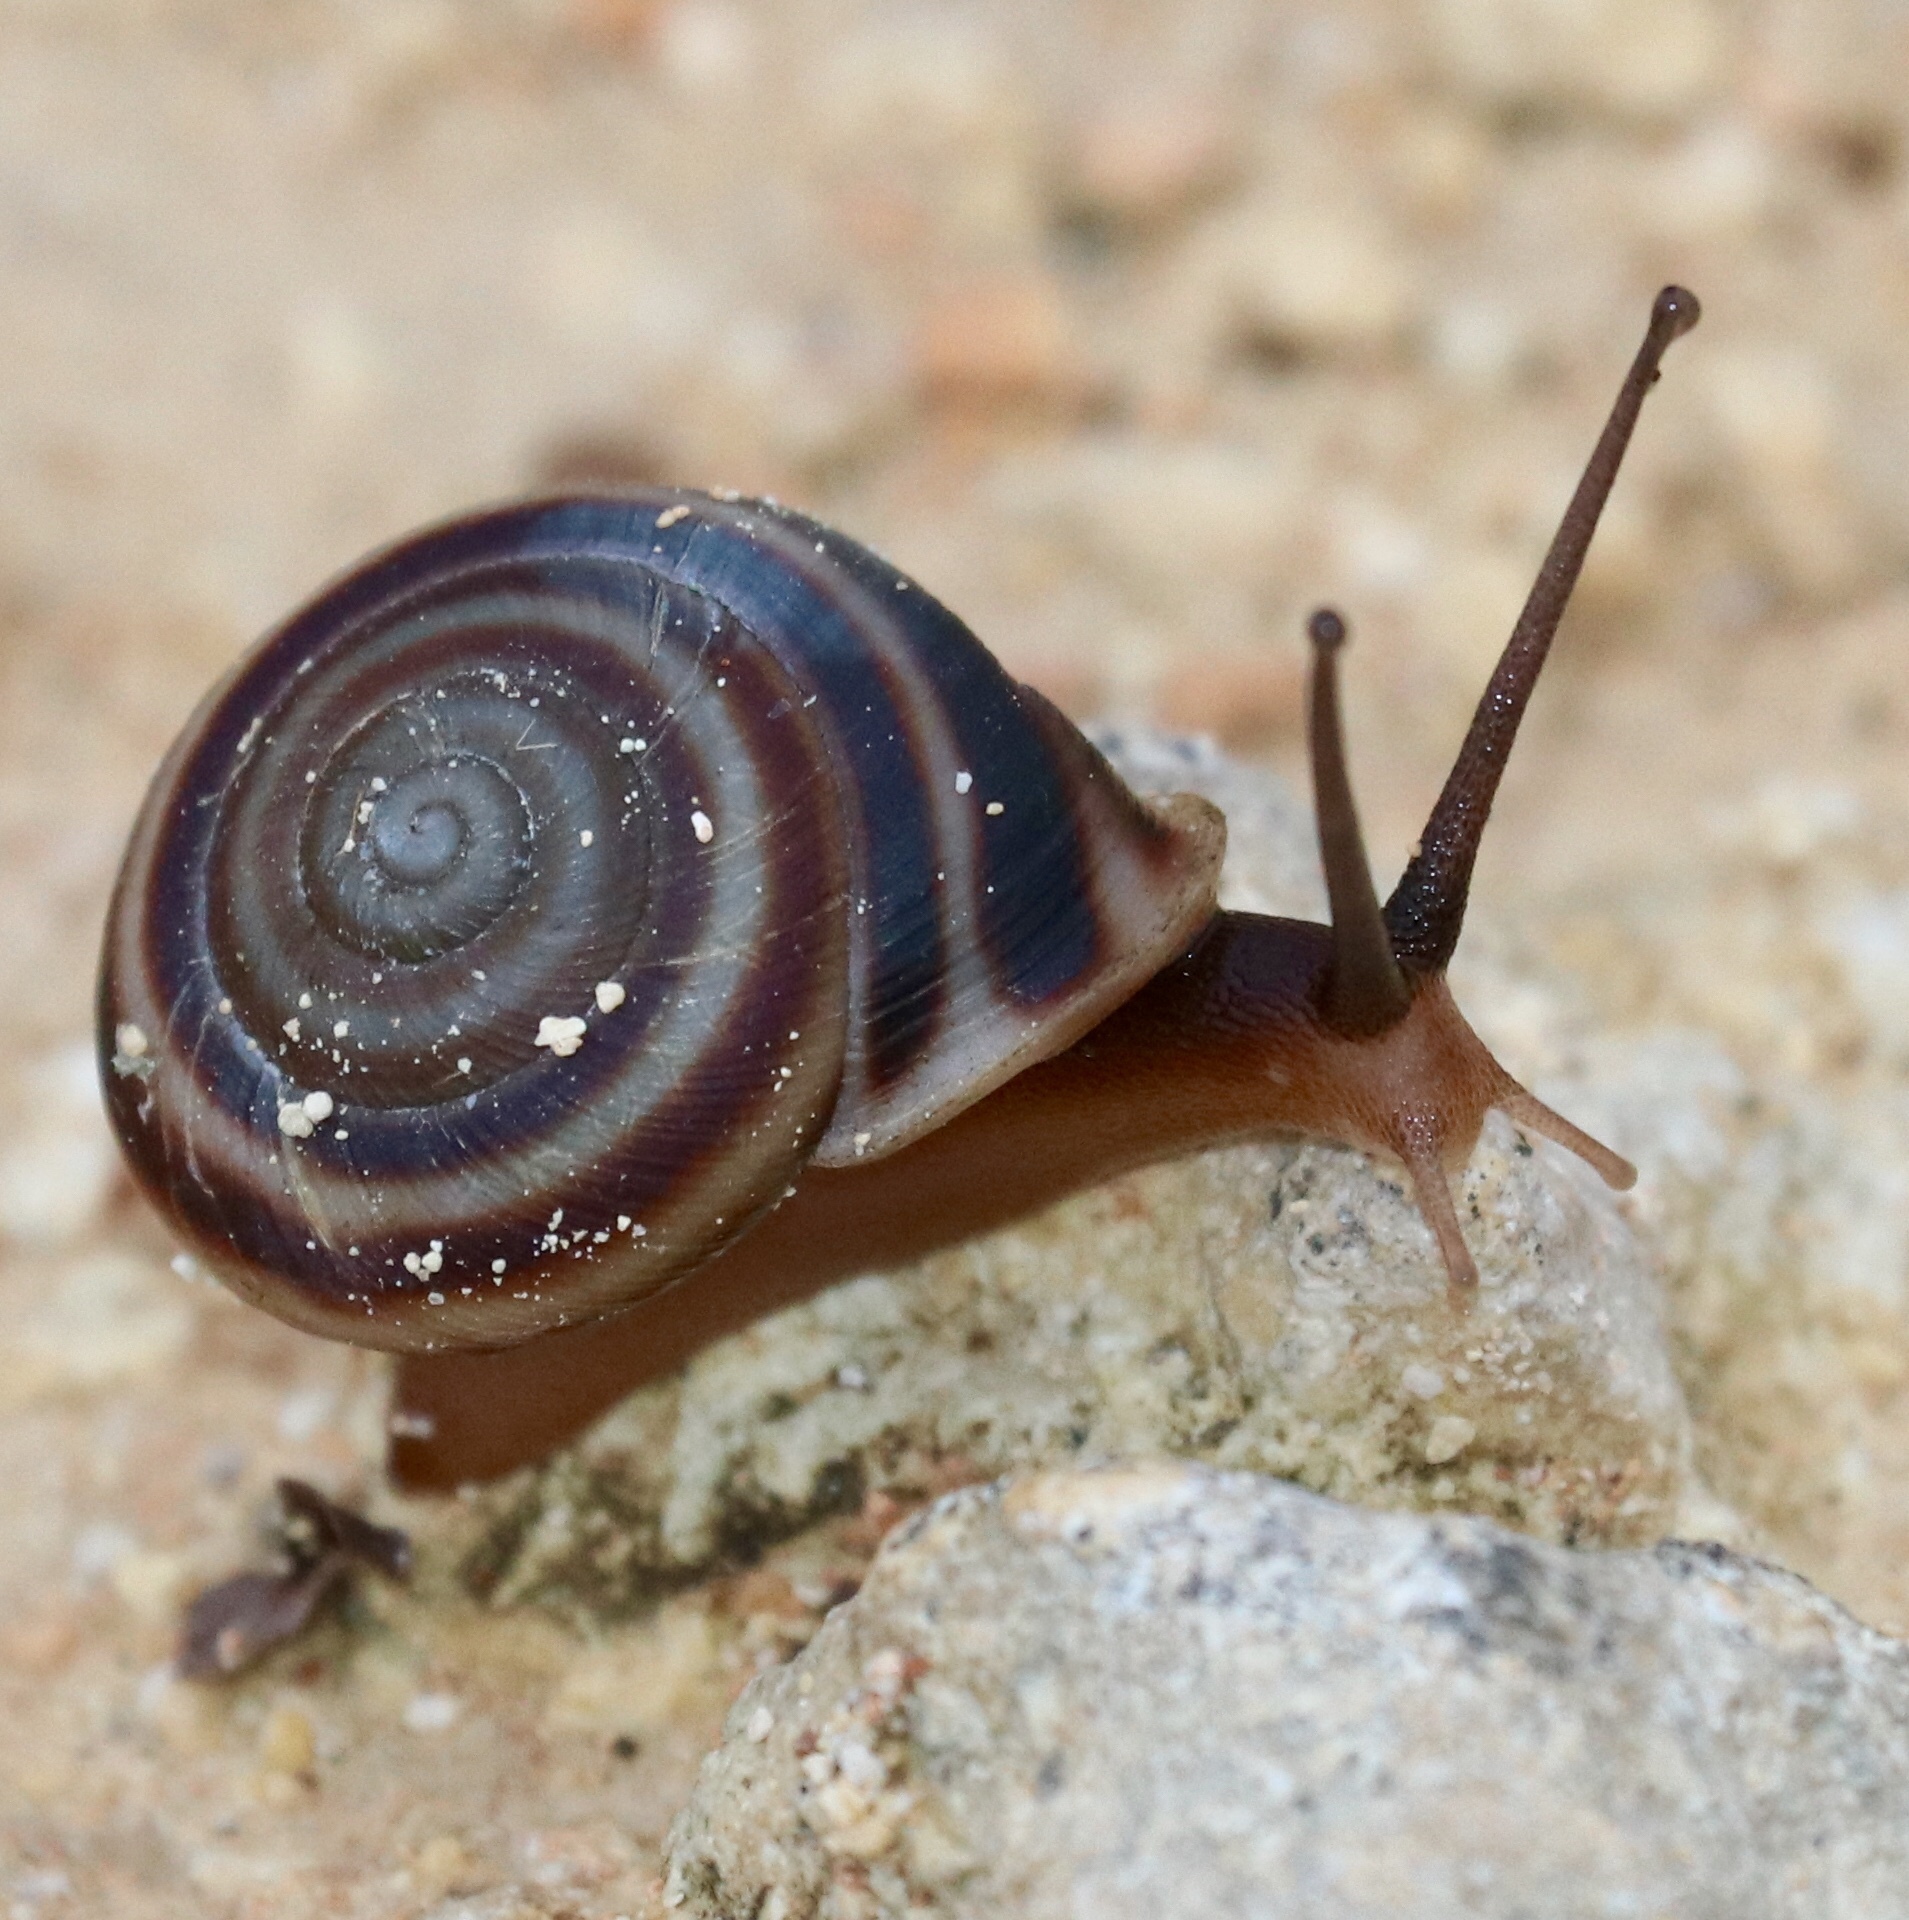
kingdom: Animalia
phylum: Mollusca
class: Gastropoda
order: Stylommatophora
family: Cepolidae
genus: Cepolella
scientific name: Cepolella definita
